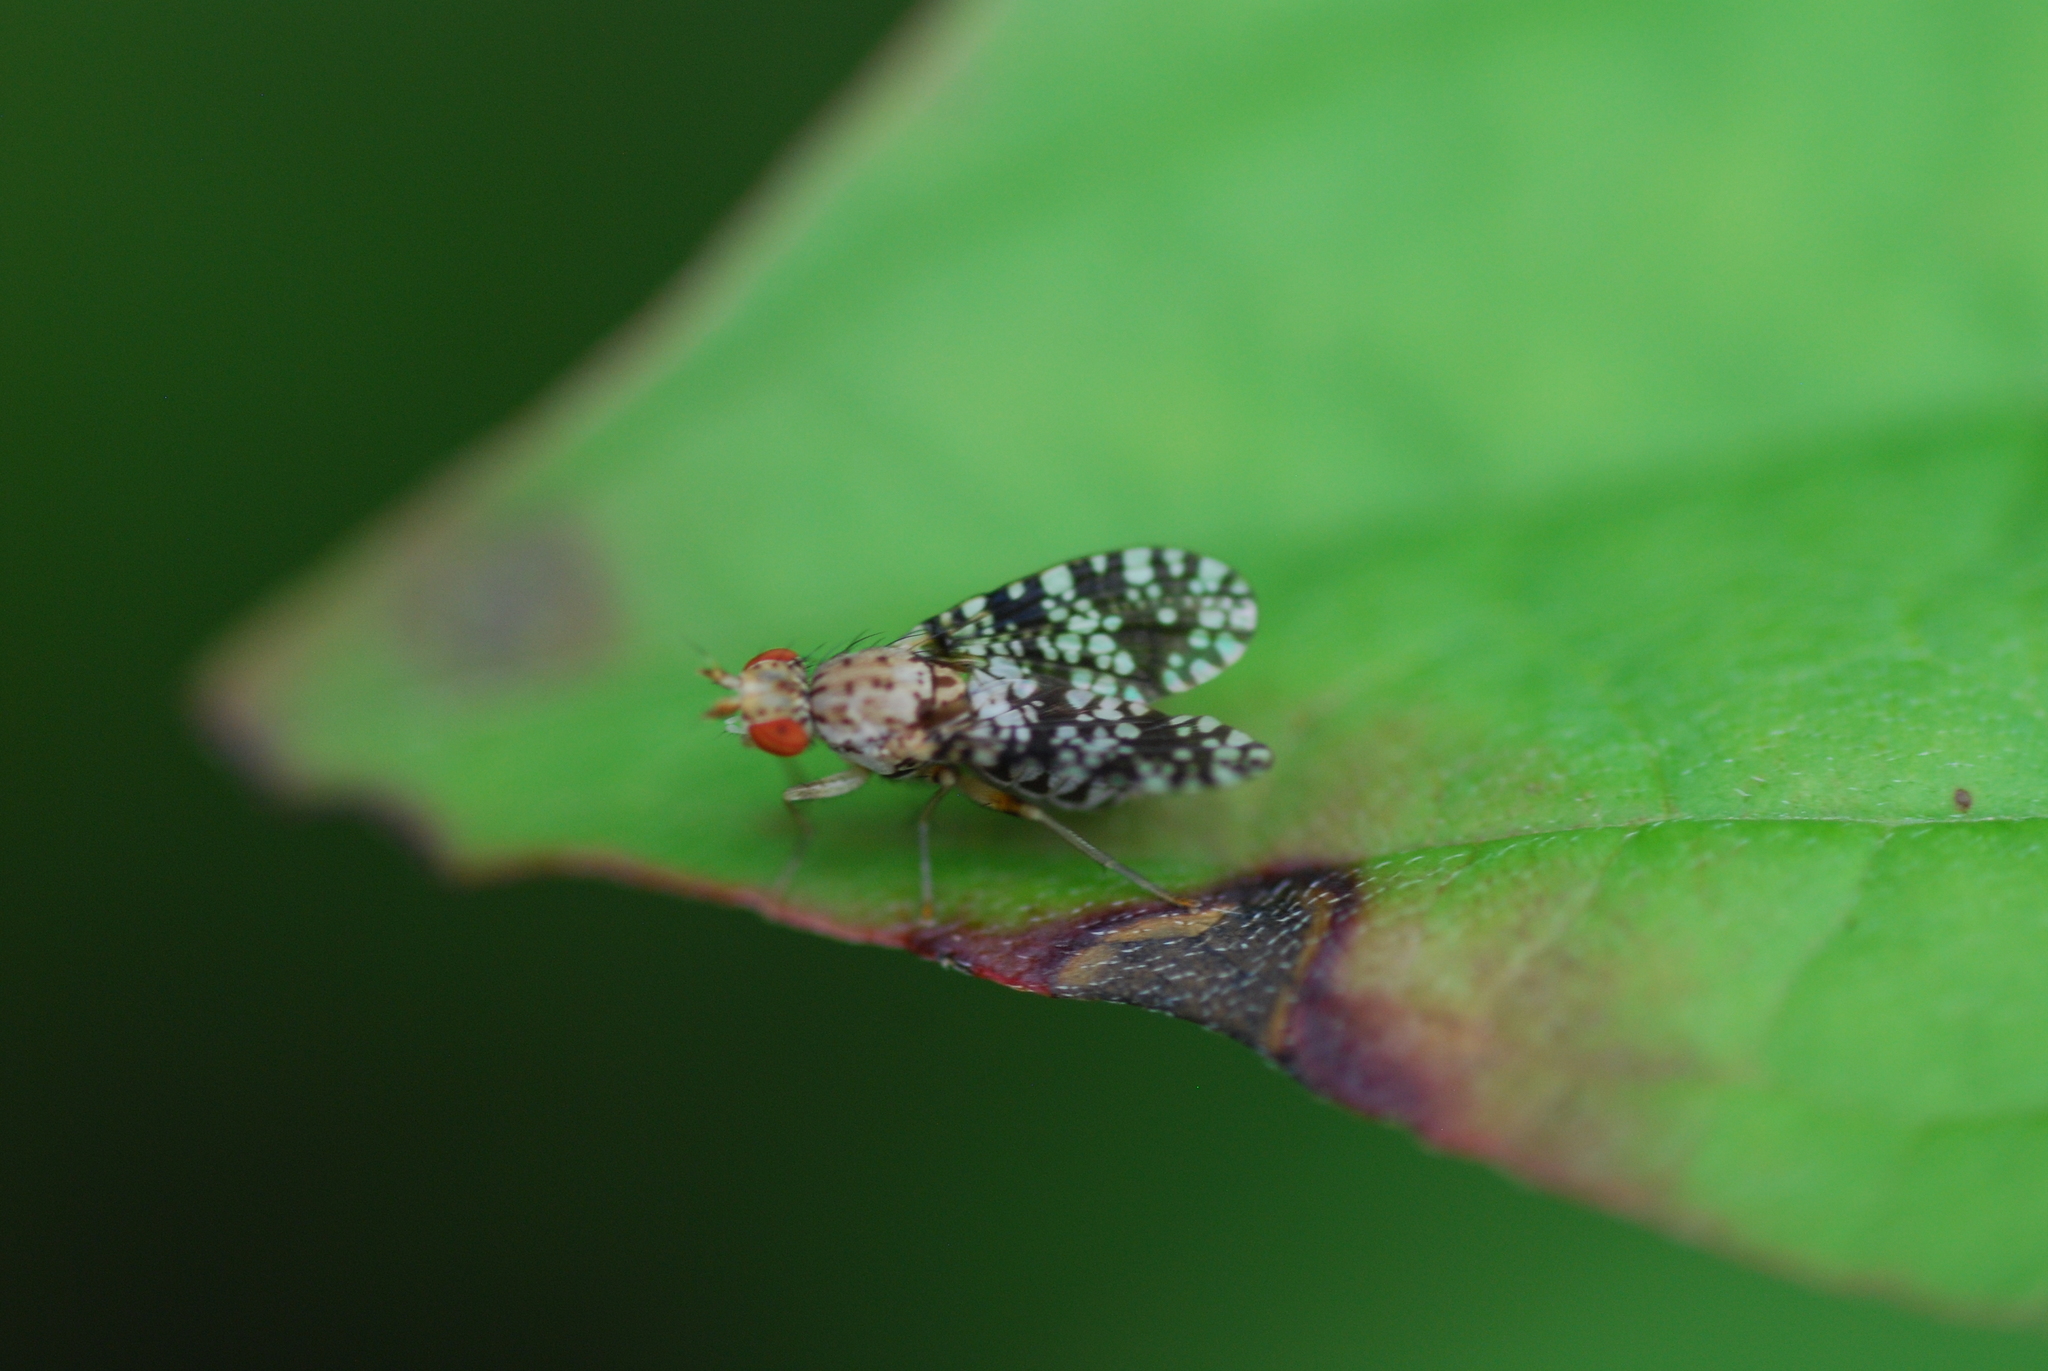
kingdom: Animalia
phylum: Arthropoda
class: Insecta
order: Diptera
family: Sciomyzidae
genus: Trypetoptera
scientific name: Trypetoptera punctulata
